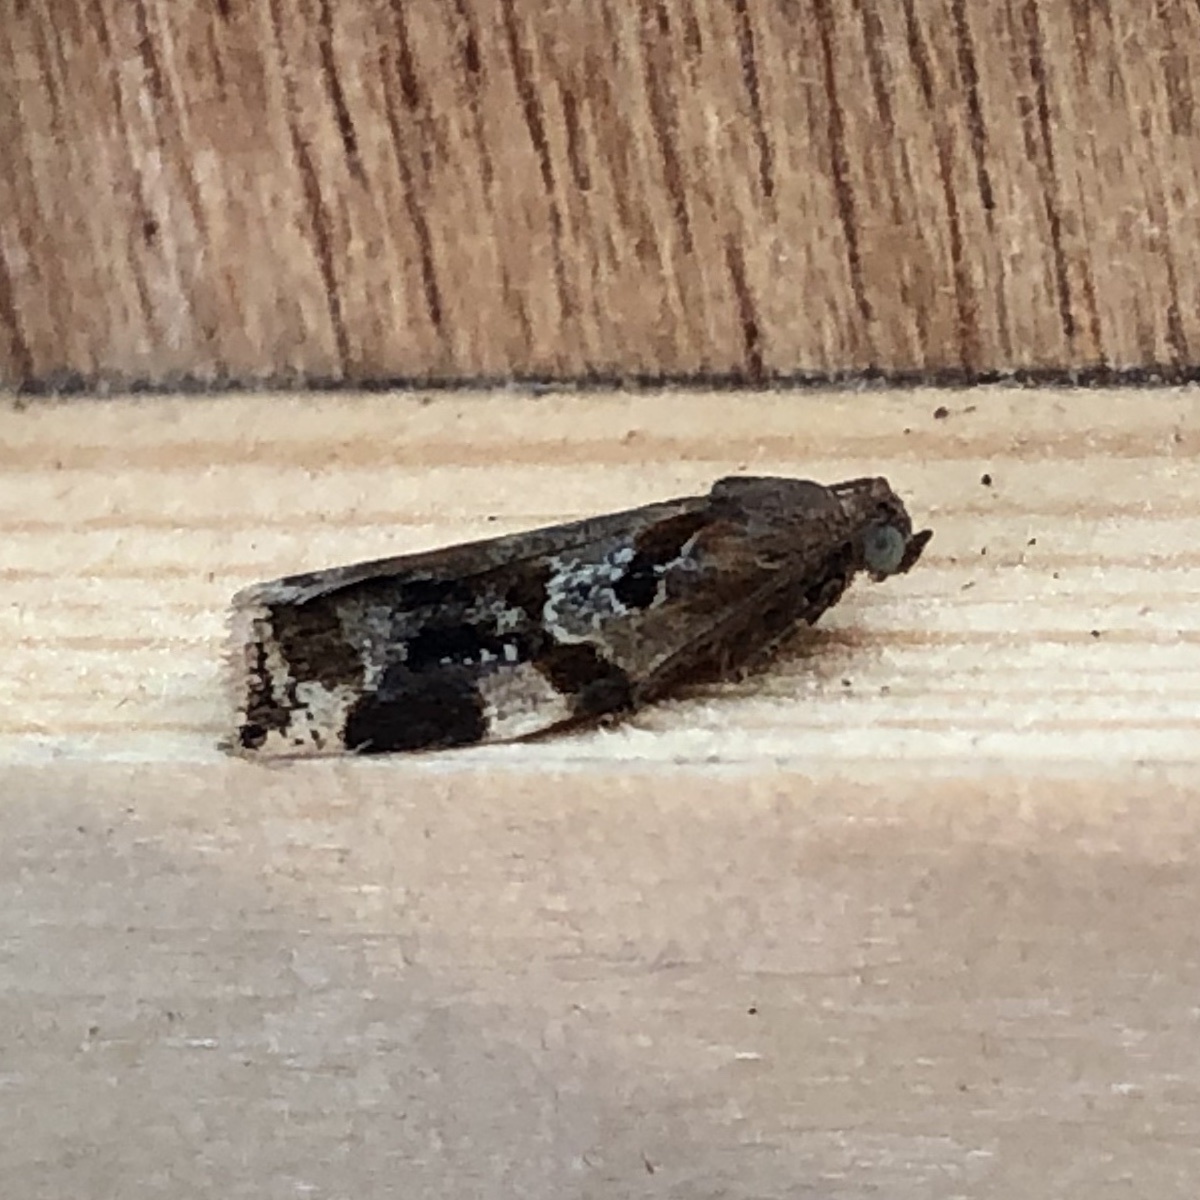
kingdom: Animalia
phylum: Arthropoda
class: Insecta
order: Lepidoptera
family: Tortricidae
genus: Archips
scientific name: Archips xylosteana
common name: Variegated golden tortrix
